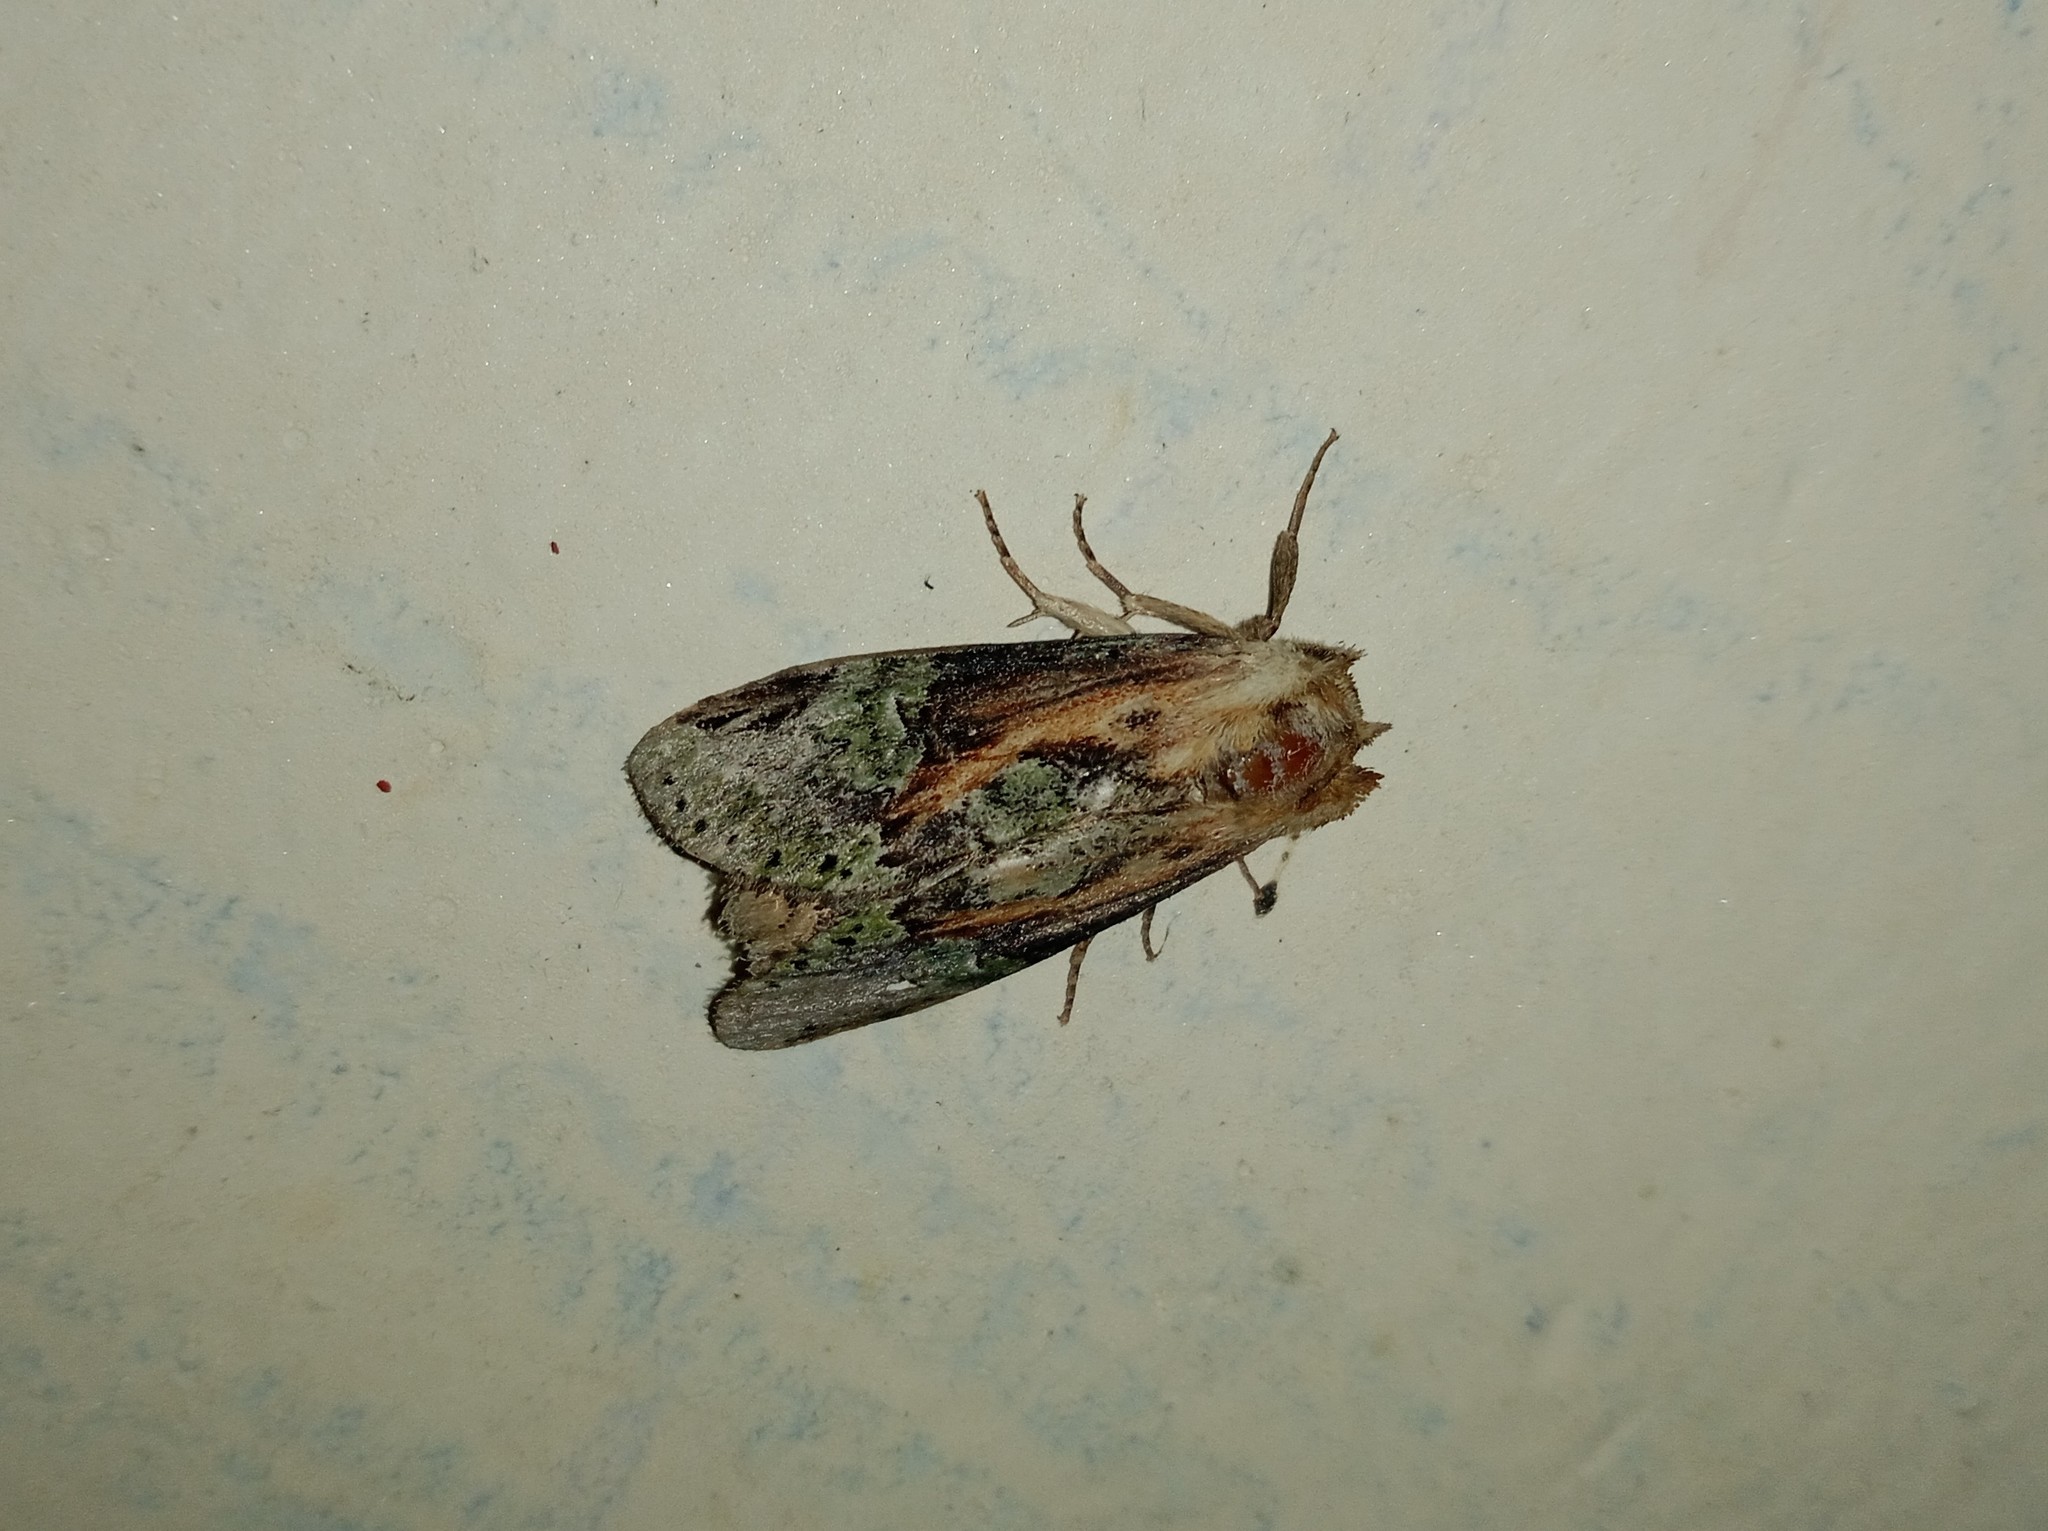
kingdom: Animalia
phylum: Arthropoda
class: Insecta
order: Lepidoptera
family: Notodontidae
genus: Chadisra
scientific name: Chadisra bipars
